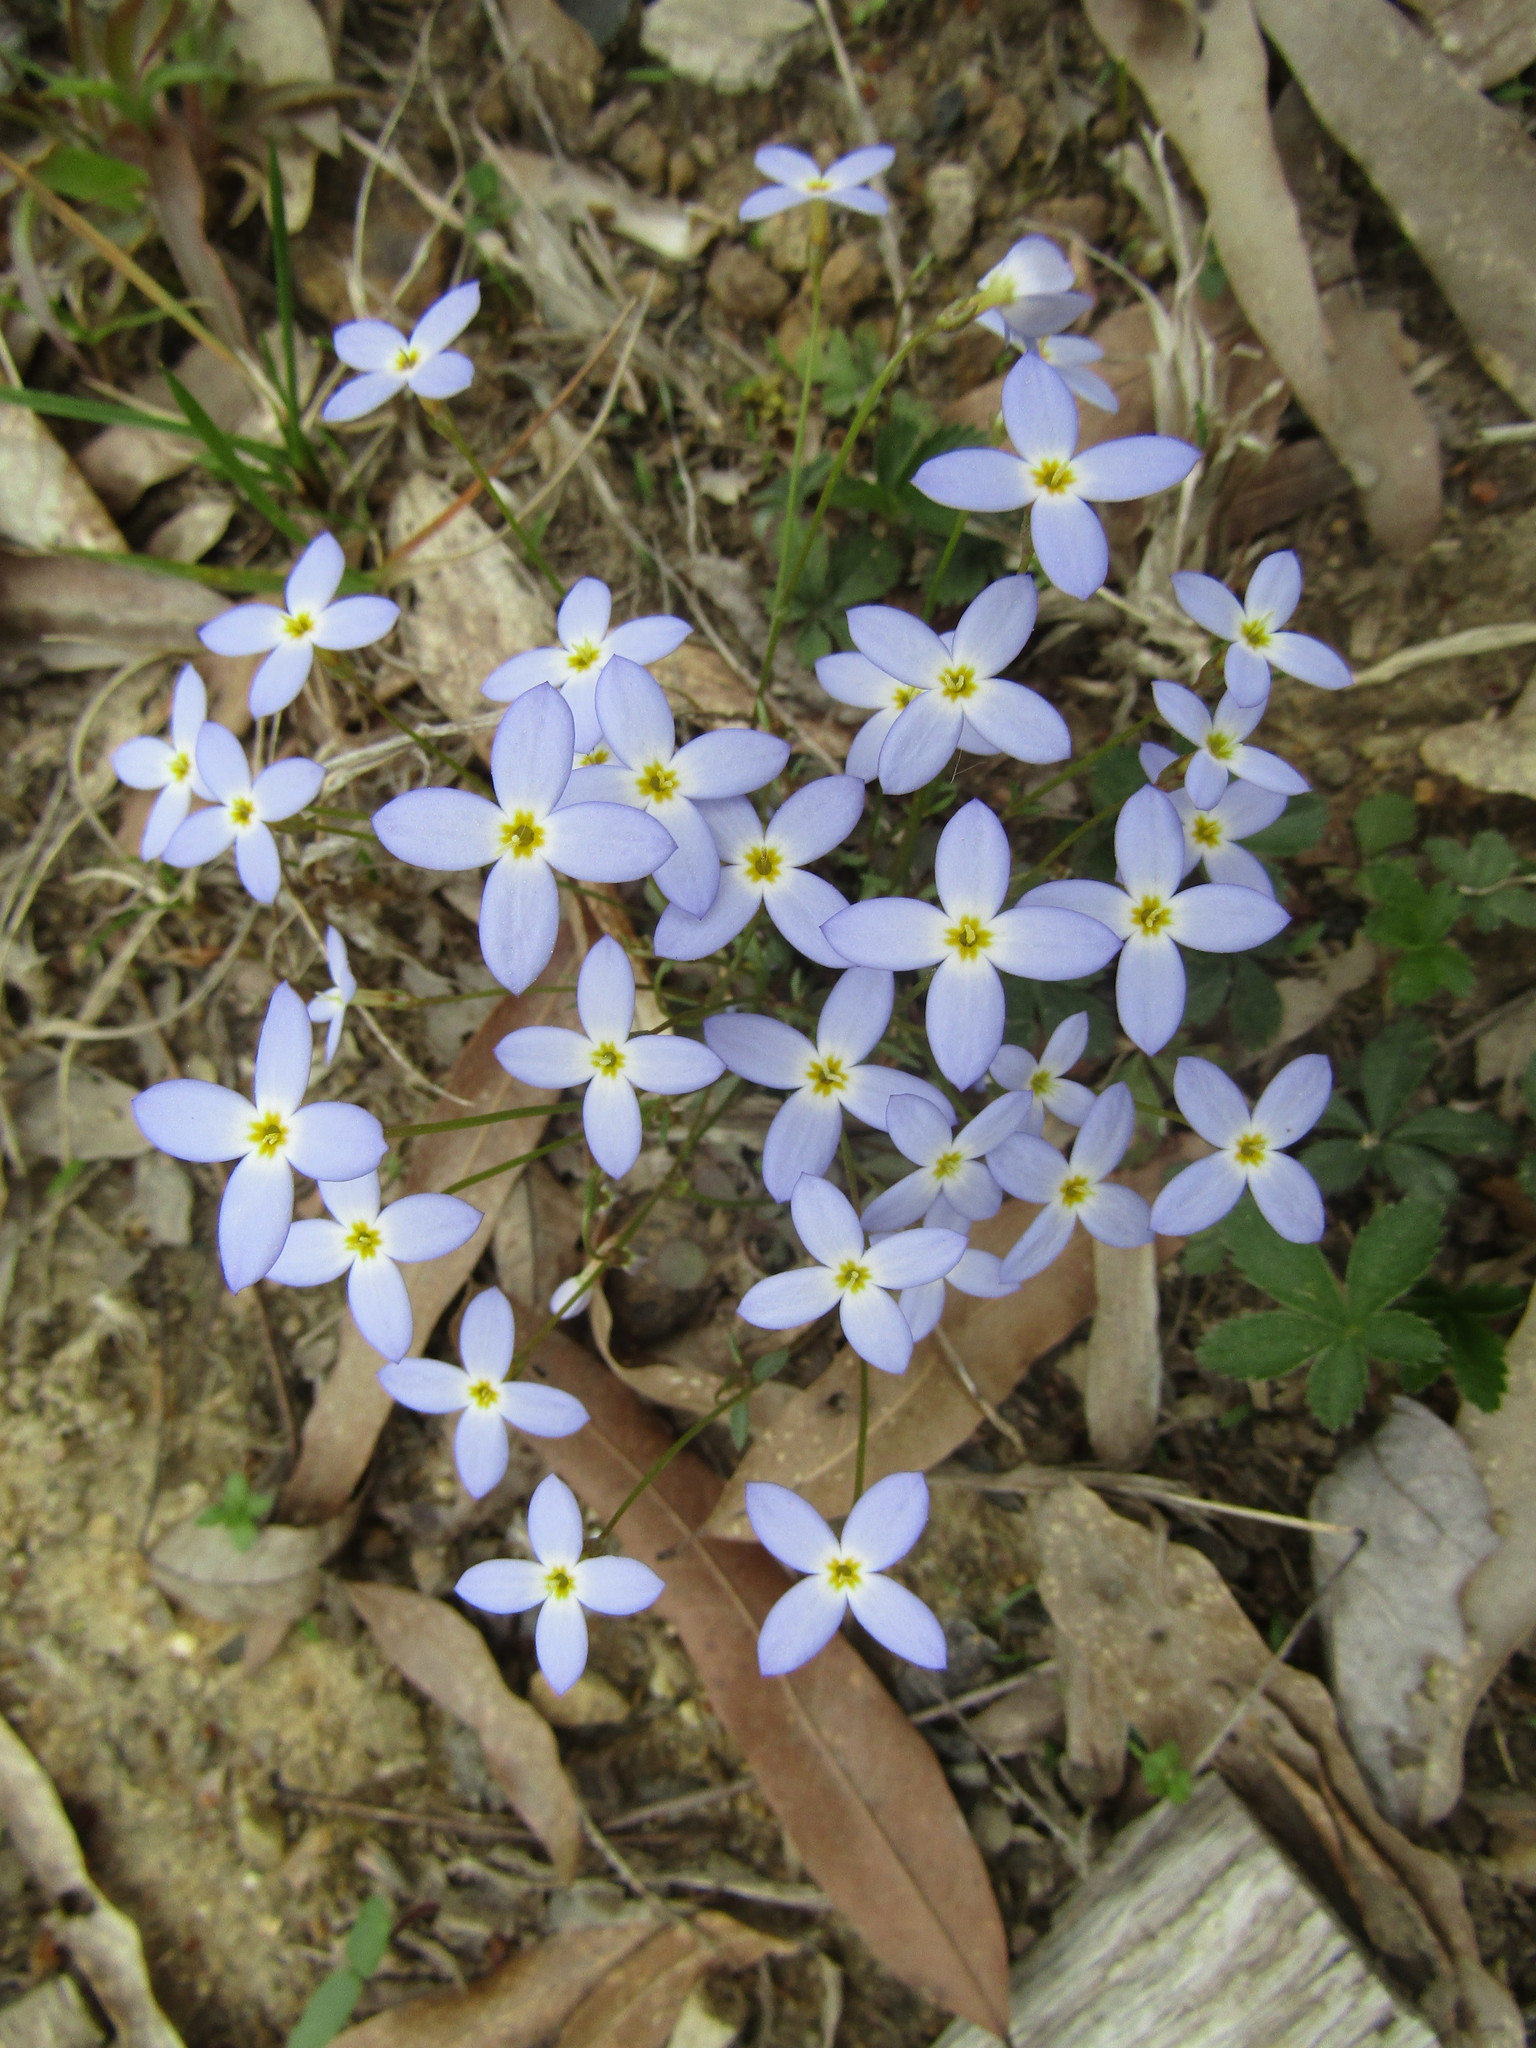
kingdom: Plantae
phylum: Tracheophyta
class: Magnoliopsida
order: Gentianales
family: Rubiaceae
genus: Houstonia
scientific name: Houstonia caerulea
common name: Bluets
